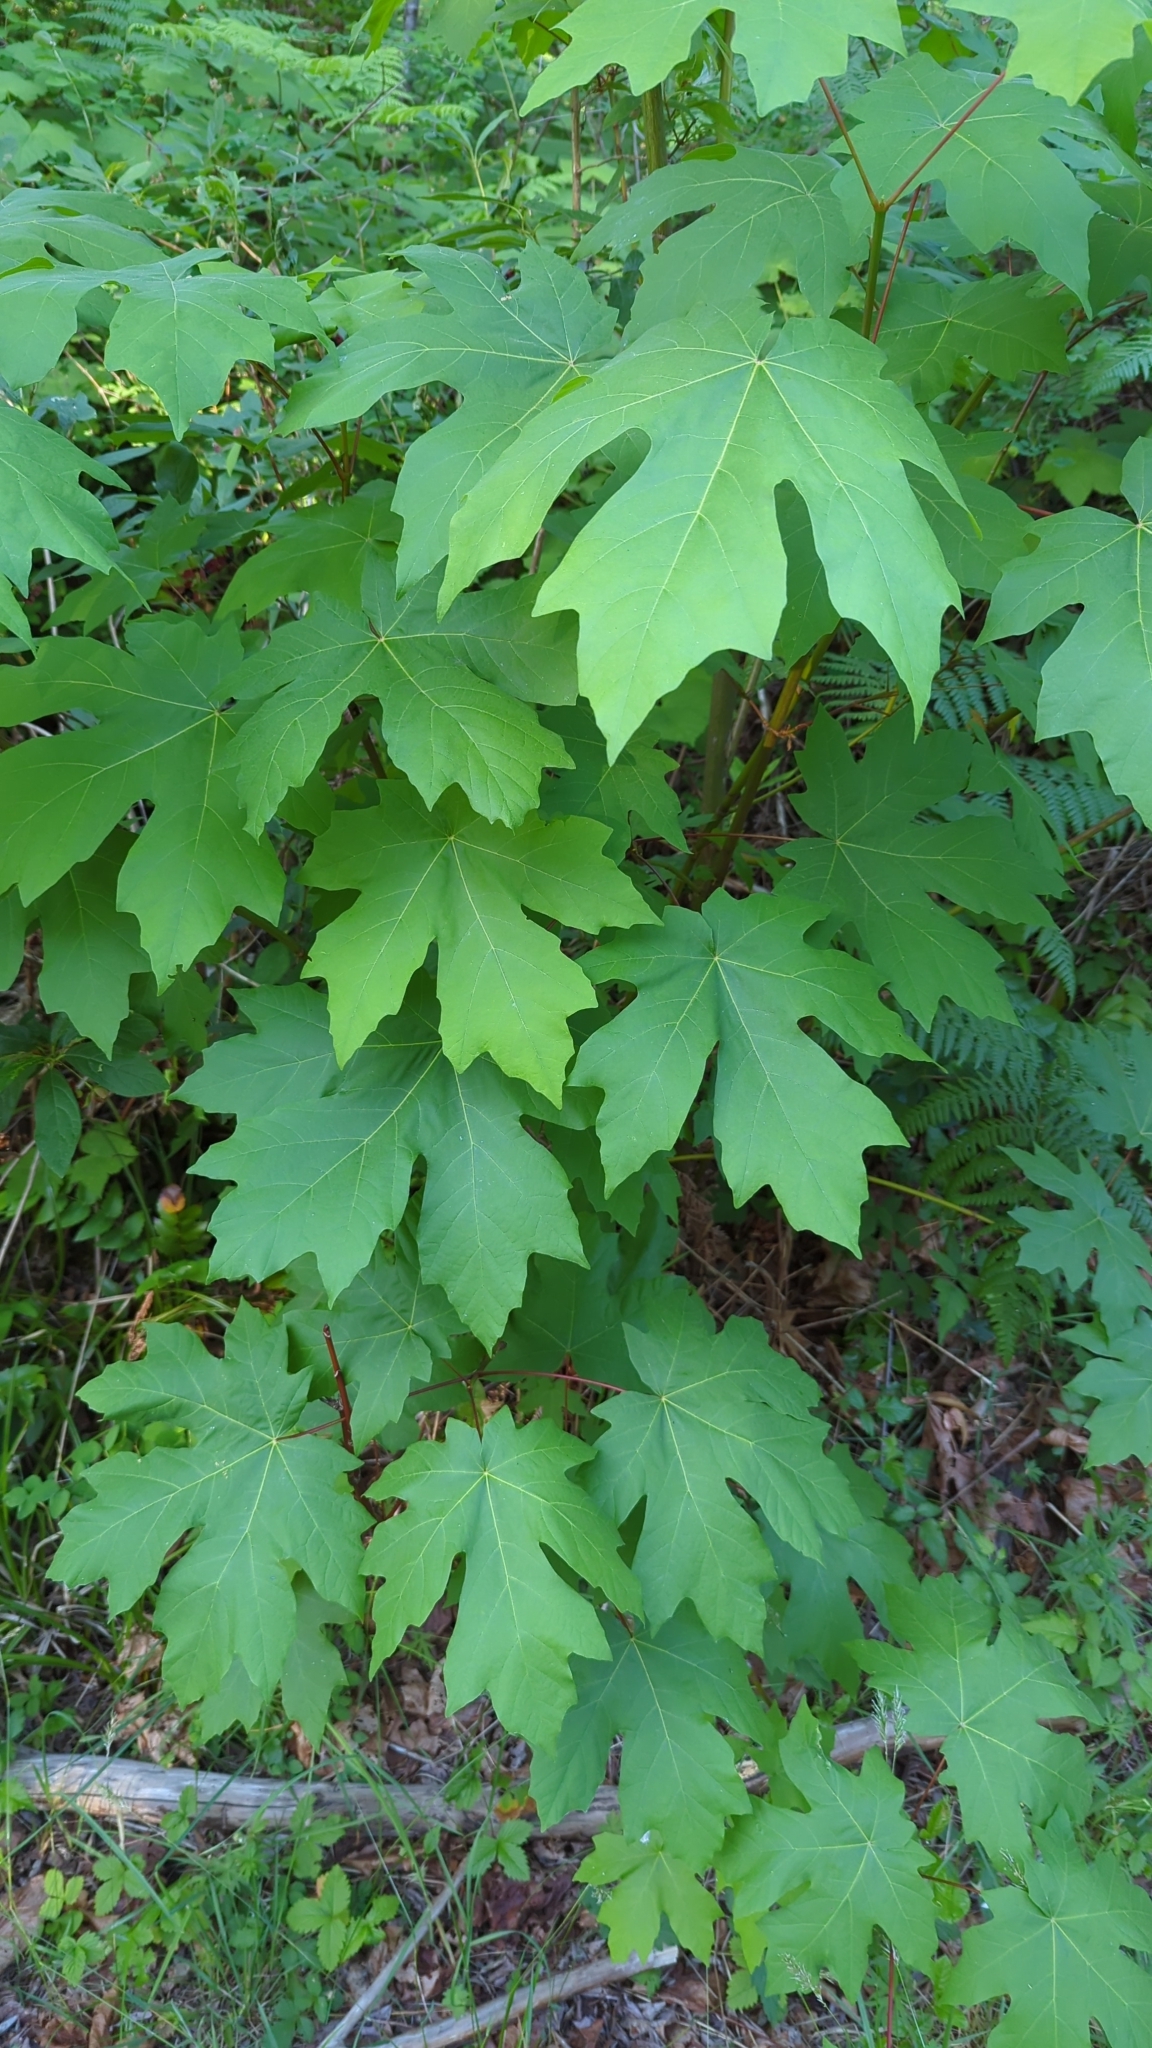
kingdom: Plantae
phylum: Tracheophyta
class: Magnoliopsida
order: Sapindales
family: Sapindaceae
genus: Acer
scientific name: Acer macrophyllum
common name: Oregon maple
